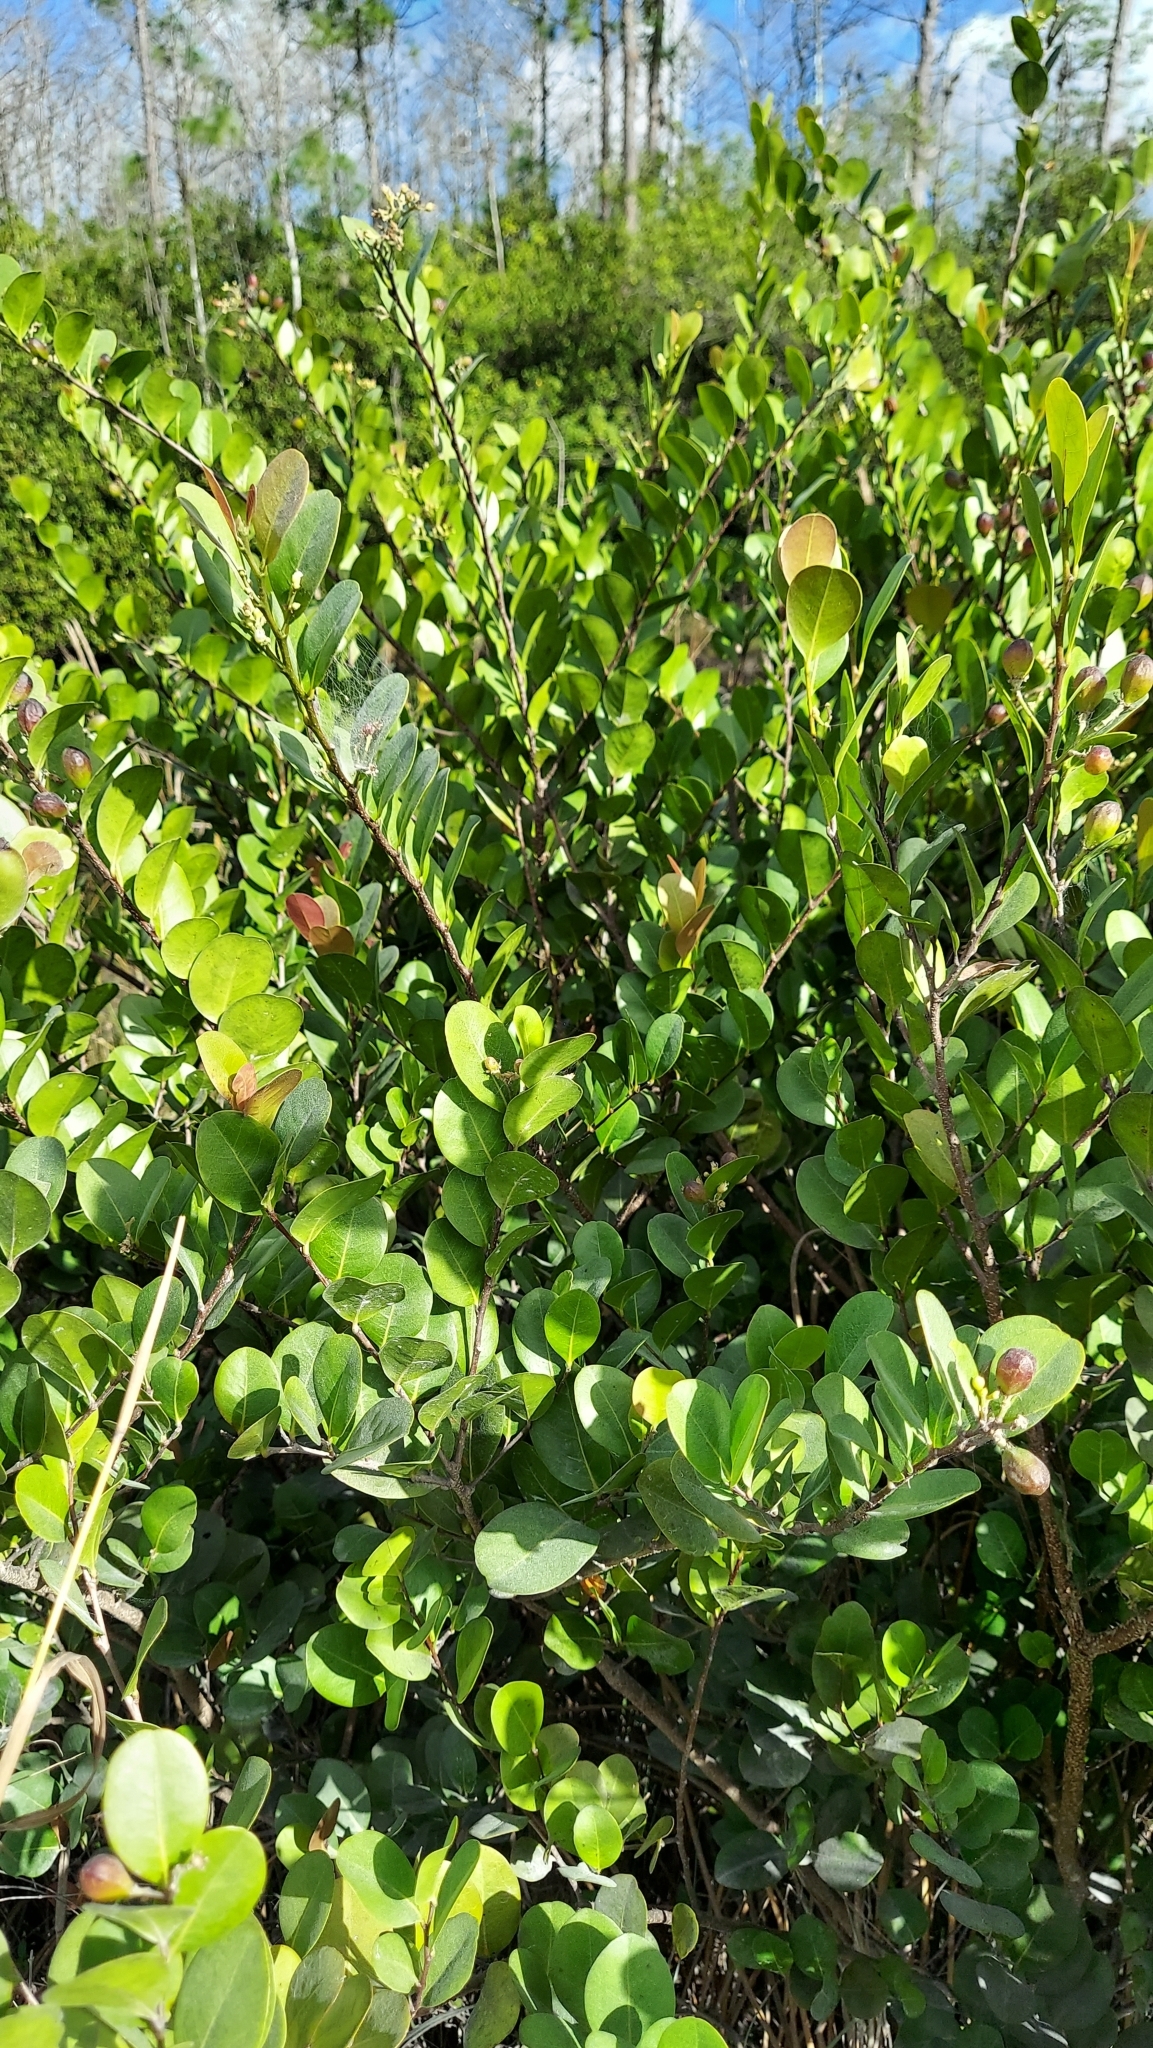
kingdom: Plantae
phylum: Tracheophyta
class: Magnoliopsida
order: Malpighiales
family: Chrysobalanaceae
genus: Chrysobalanus
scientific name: Chrysobalanus icaco
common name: Coco plum
